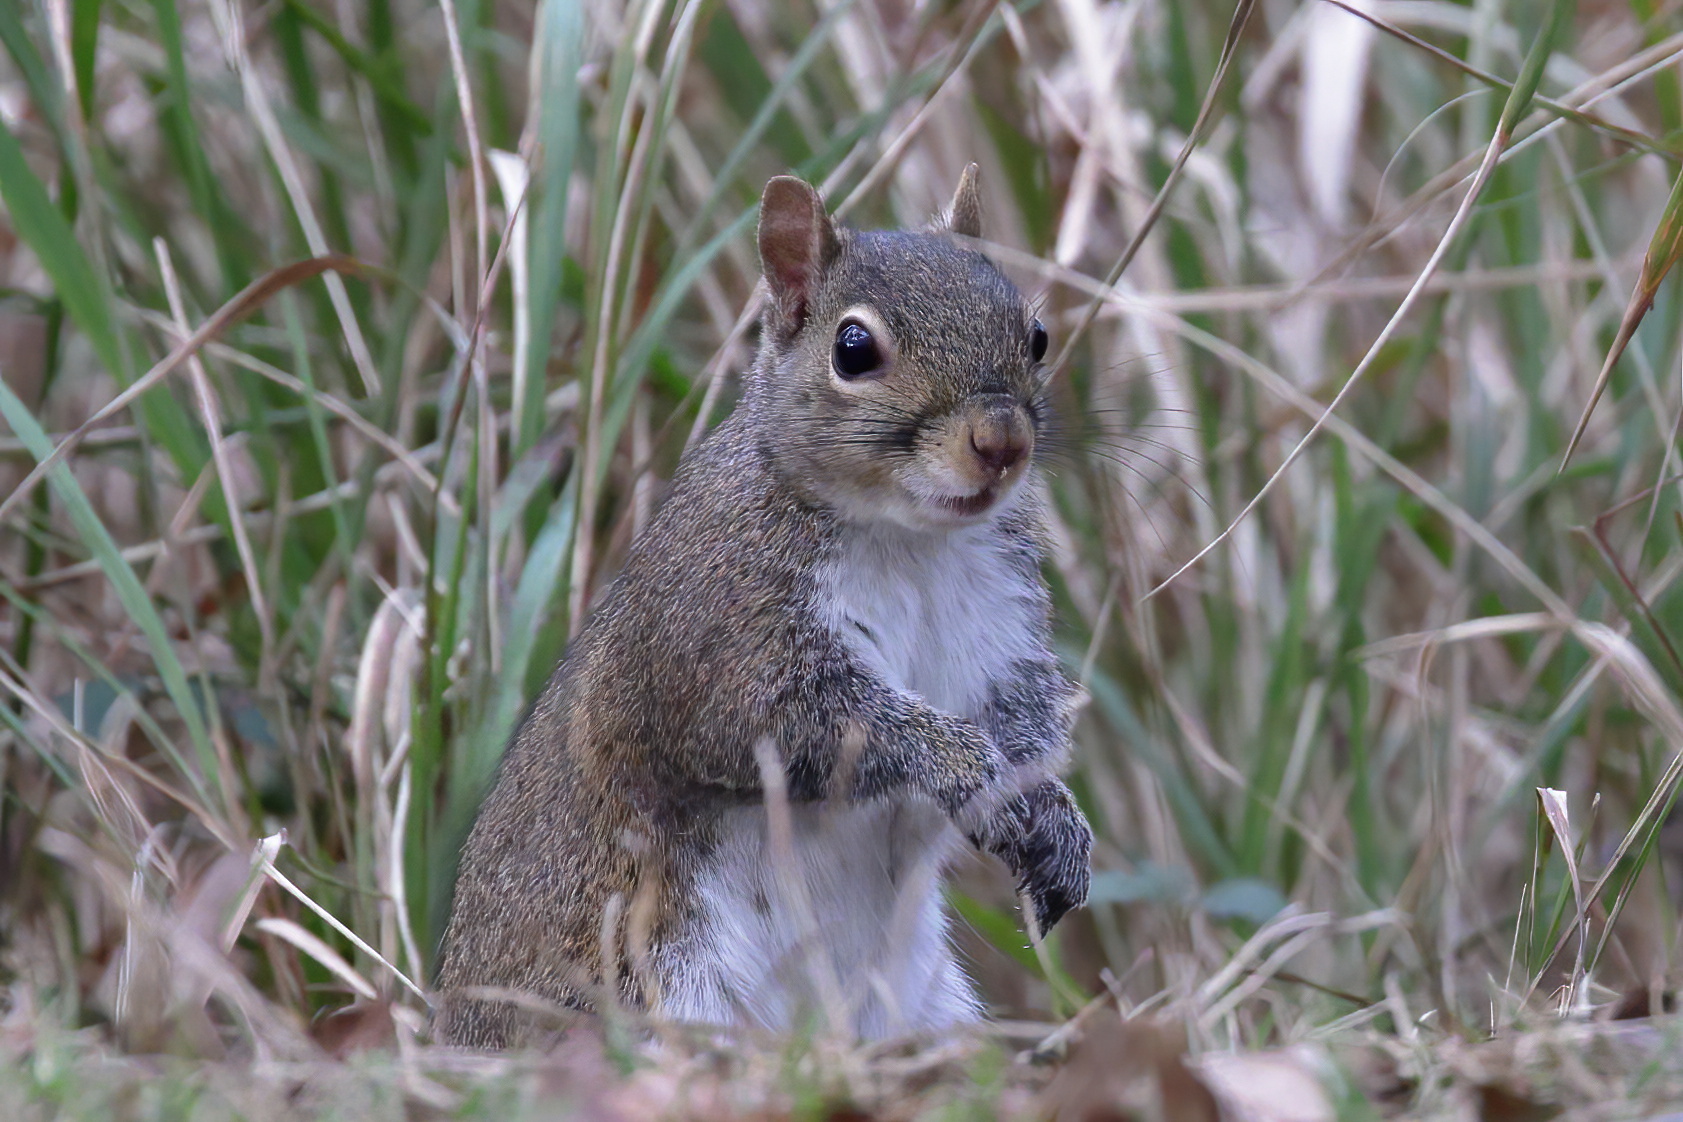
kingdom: Animalia
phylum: Chordata
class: Mammalia
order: Rodentia
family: Sciuridae
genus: Sciurus
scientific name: Sciurus carolinensis
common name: Eastern gray squirrel
